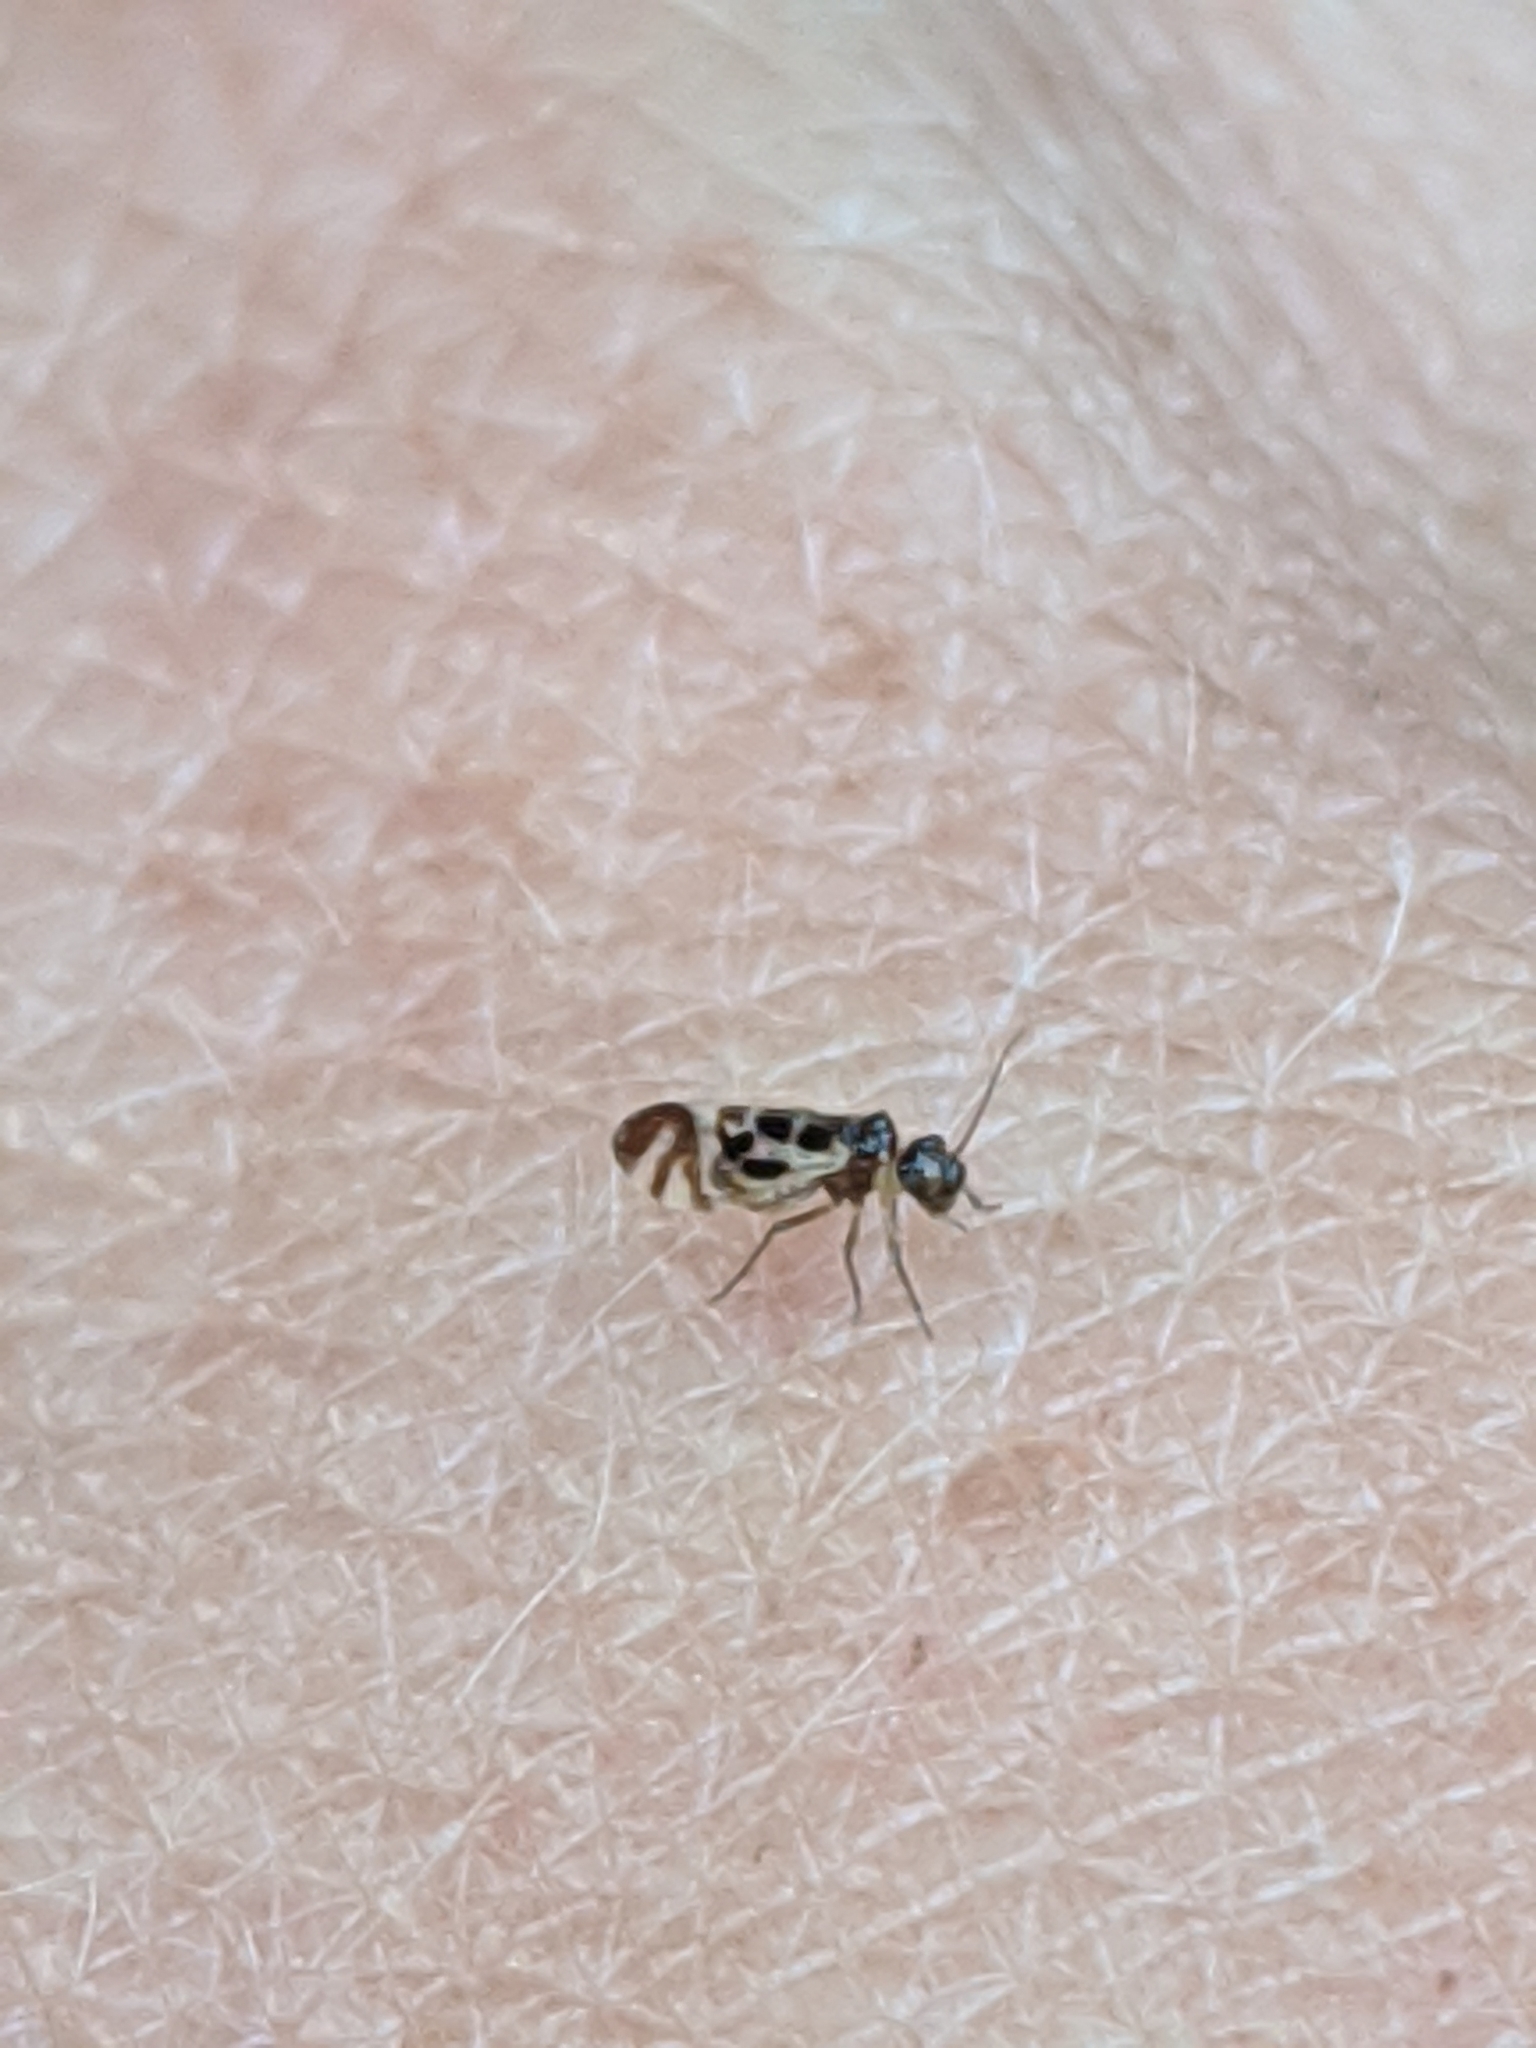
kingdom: Animalia
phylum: Arthropoda
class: Insecta
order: Psocodea
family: Stenopsocidae
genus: Graphopsocus
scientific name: Graphopsocus cruciatus
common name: Lizard bark louse
